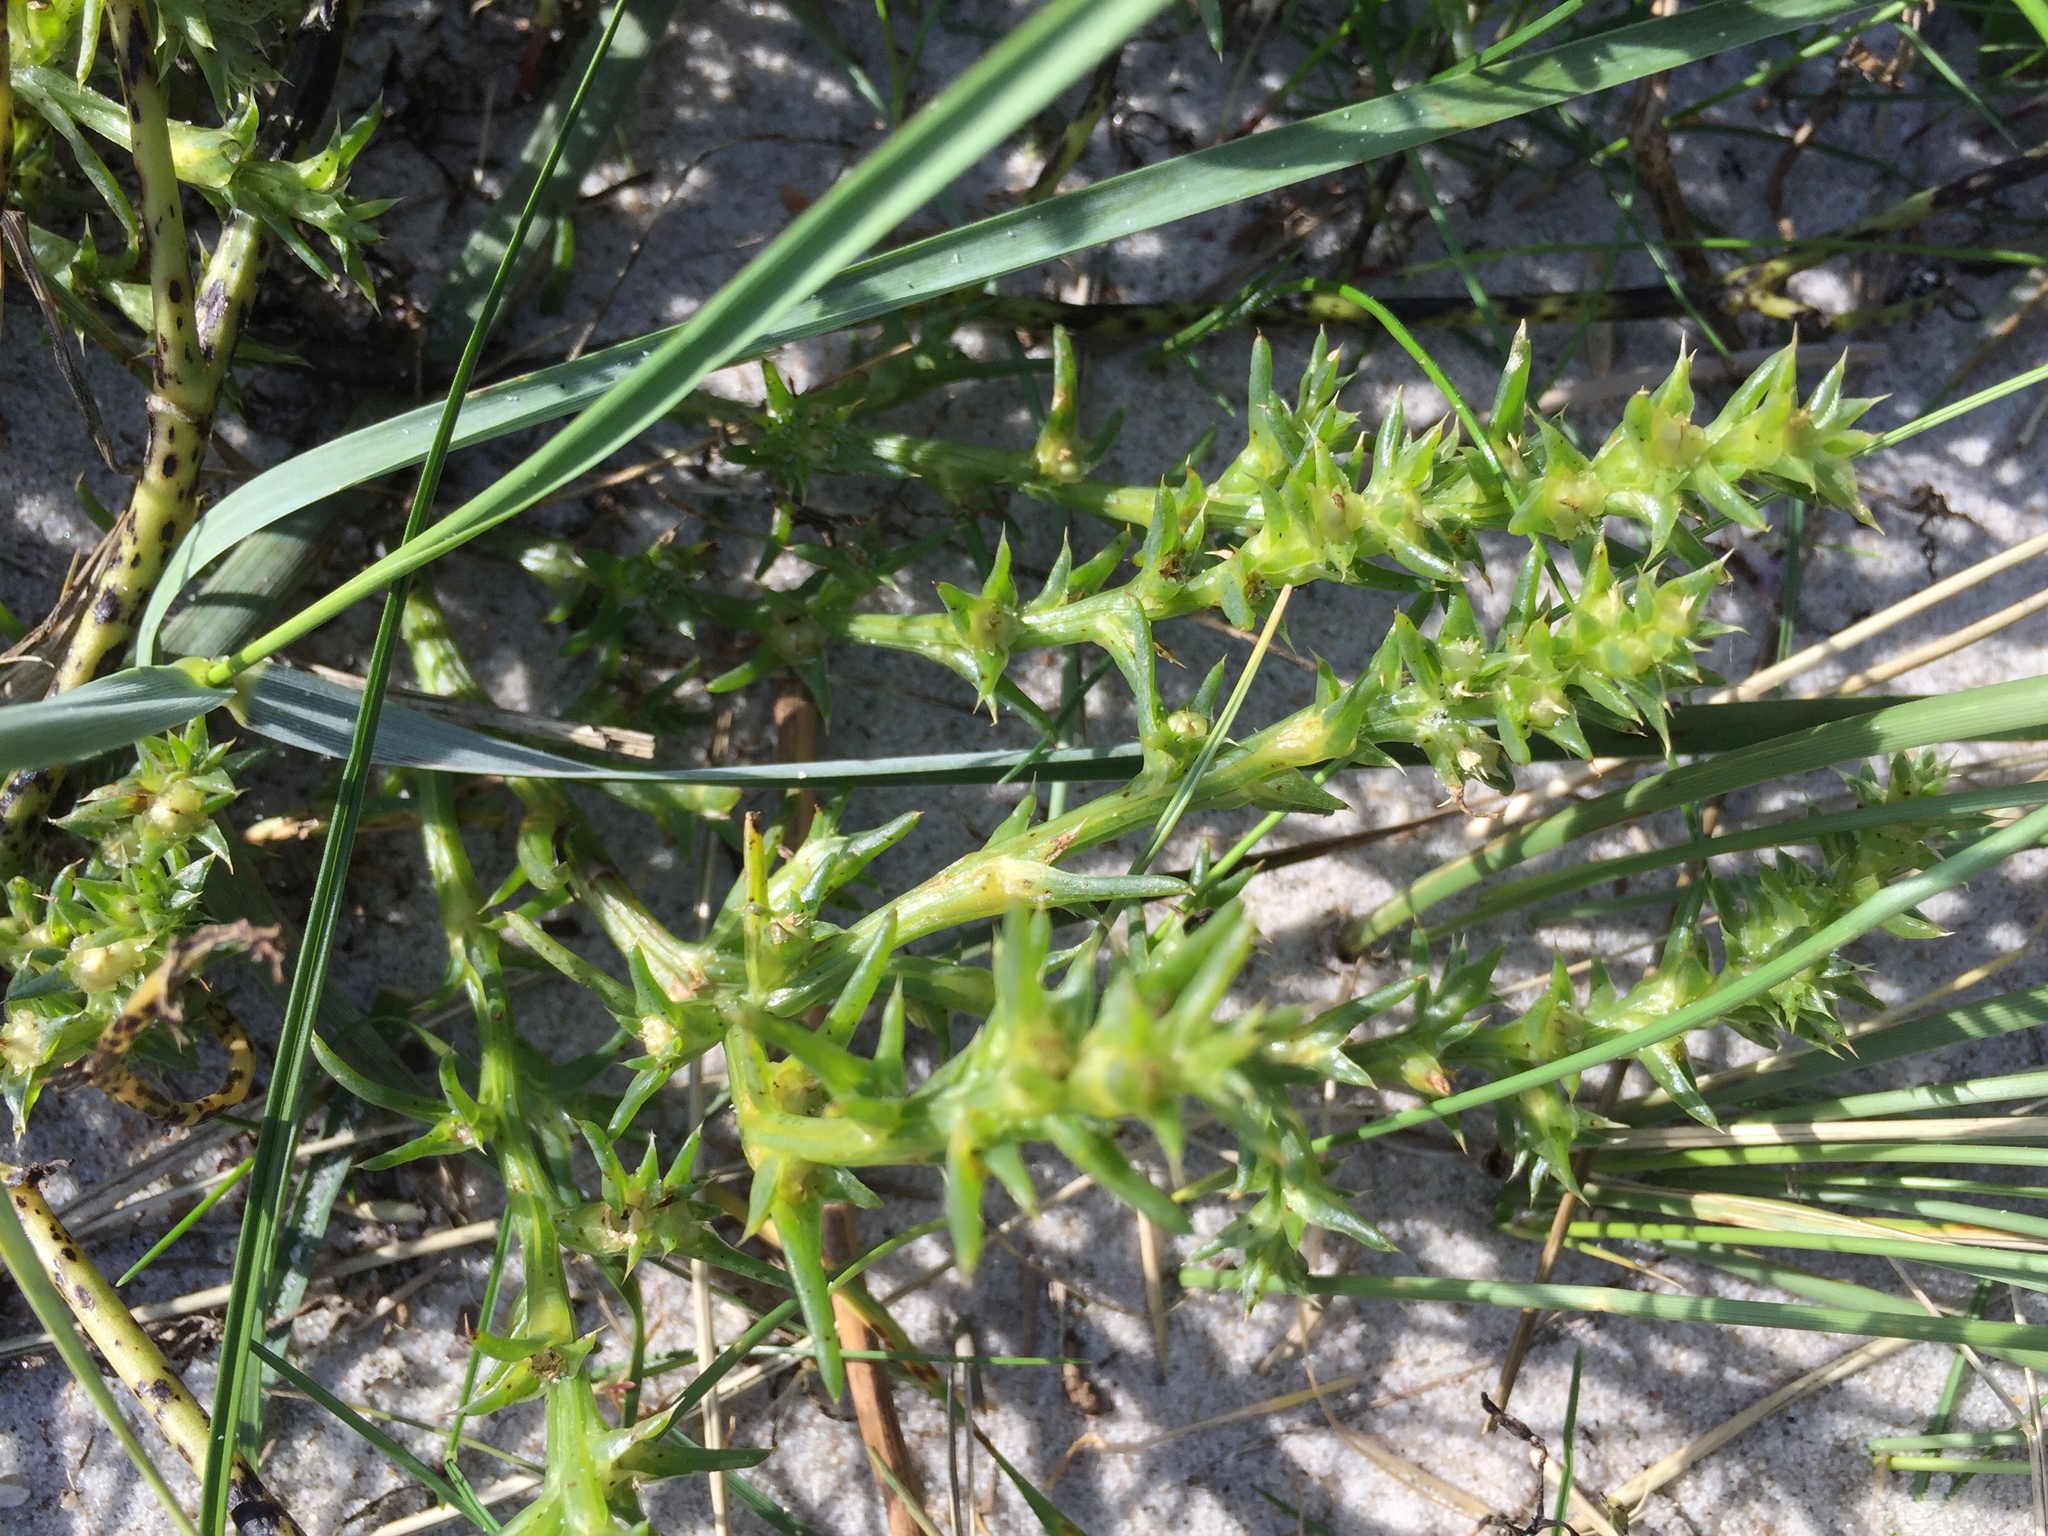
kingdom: Plantae
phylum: Tracheophyta
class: Magnoliopsida
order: Caryophyllales
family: Amaranthaceae
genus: Salsola
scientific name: Salsola kali
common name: Saltwort
